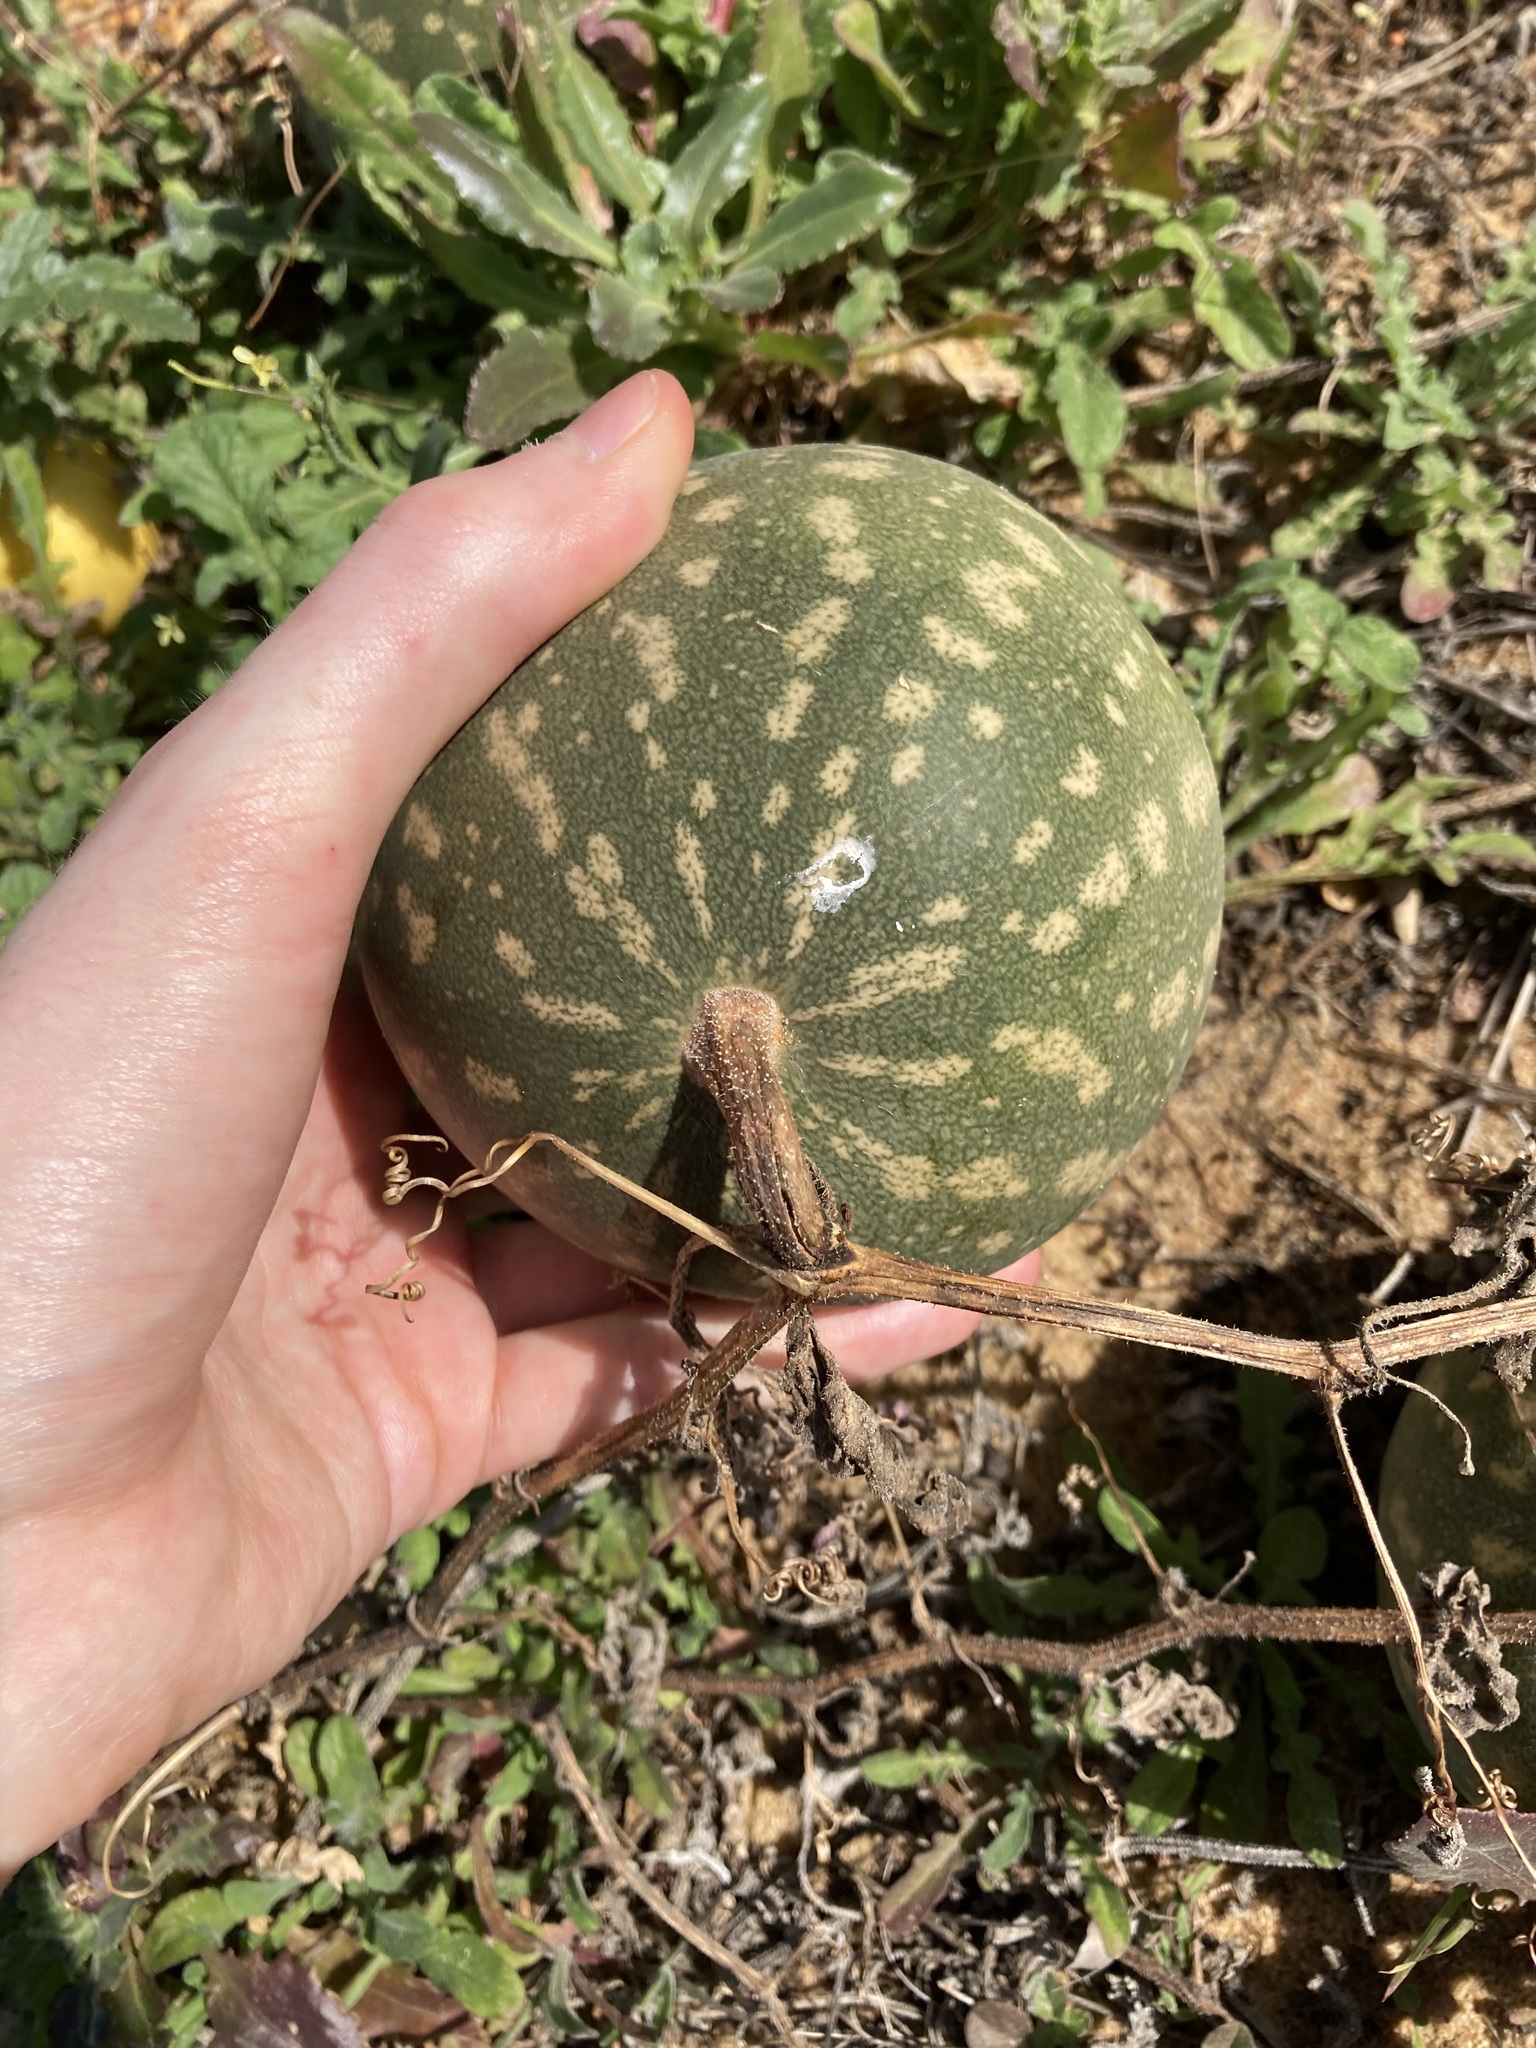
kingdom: Plantae
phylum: Tracheophyta
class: Magnoliopsida
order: Cucurbitales
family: Cucurbitaceae
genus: Citrullus
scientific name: Citrullus amarus
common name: Fodder-melon
